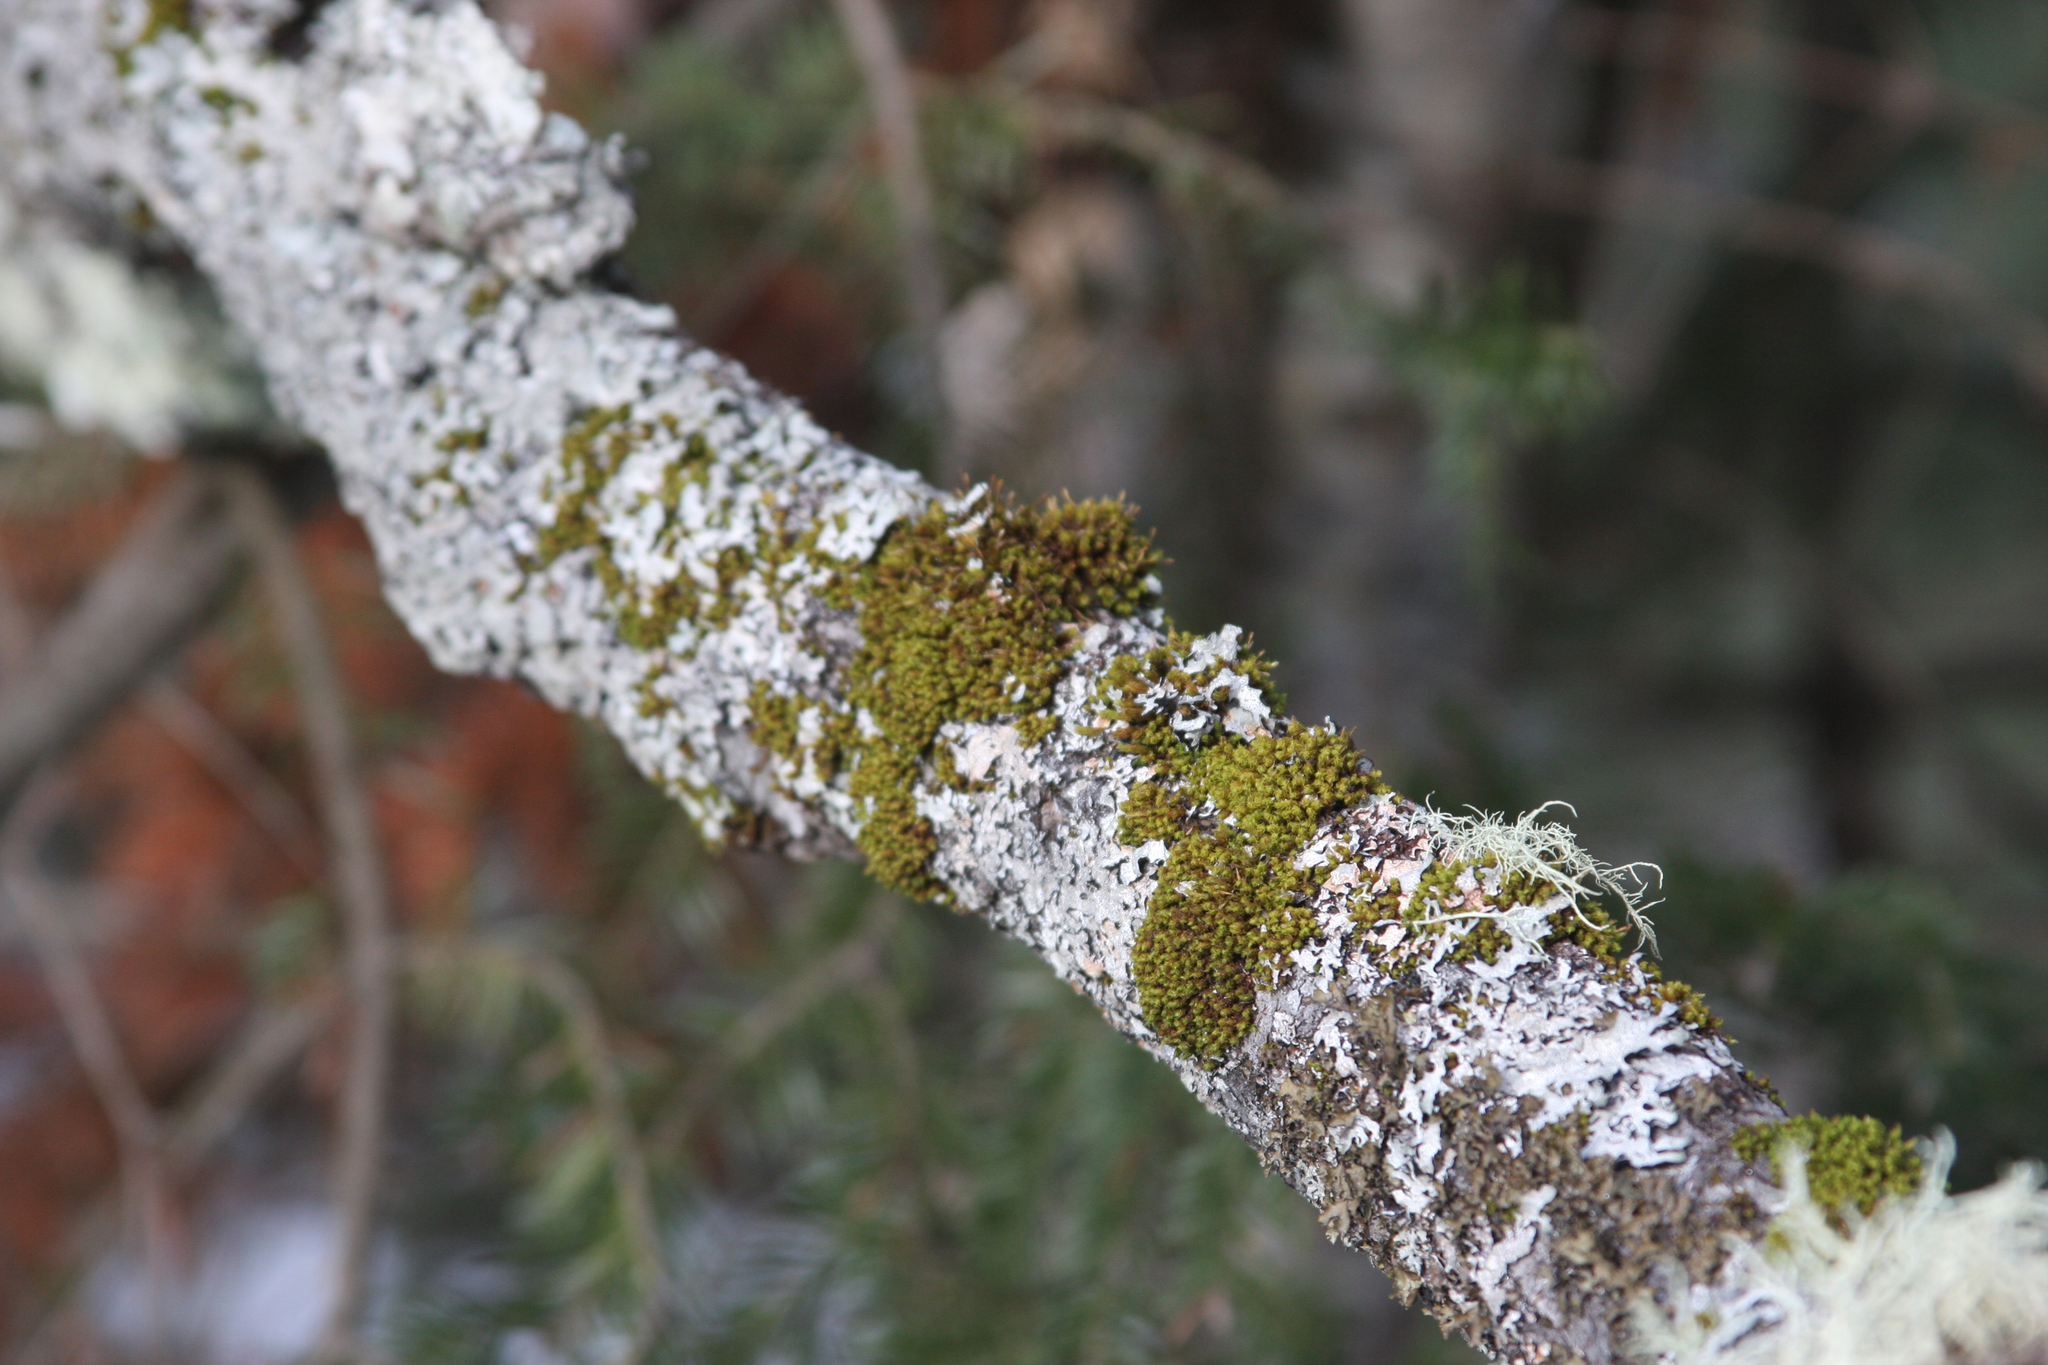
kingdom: Plantae
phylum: Bryophyta
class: Bryopsida
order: Orthotrichales
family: Orthotrichaceae
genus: Ulota
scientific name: Ulota crispa
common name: Crisped pincushion moss
